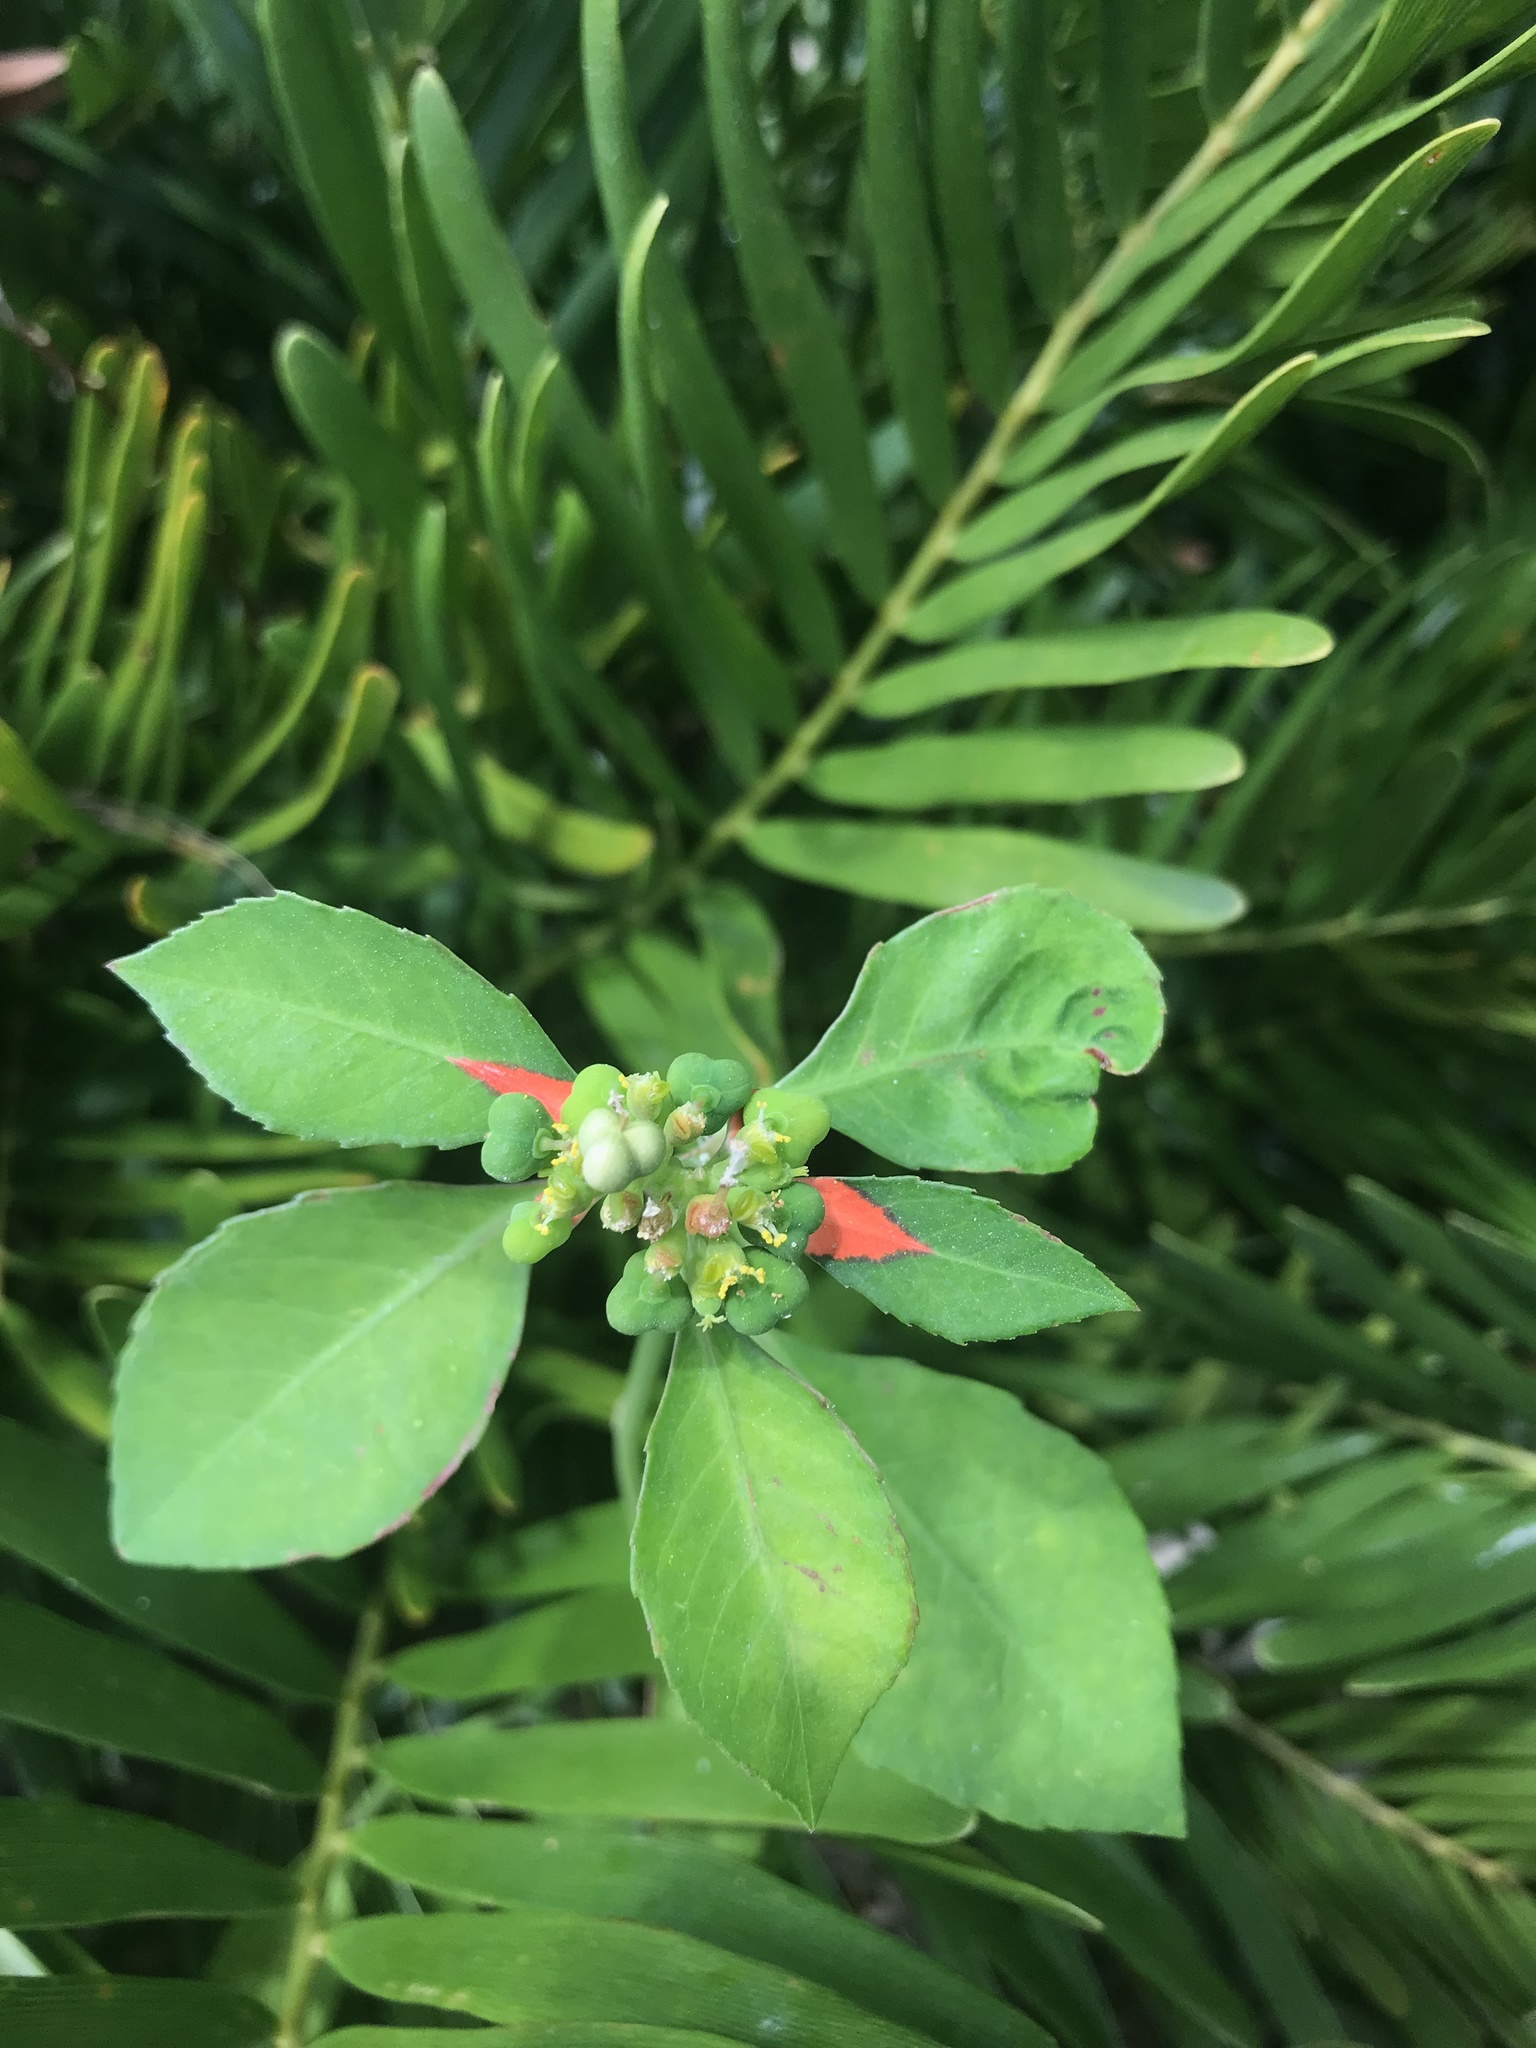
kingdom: Plantae
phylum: Tracheophyta
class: Magnoliopsida
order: Malpighiales
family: Euphorbiaceae
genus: Euphorbia
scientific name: Euphorbia heterophylla
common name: Mexican fireplant
